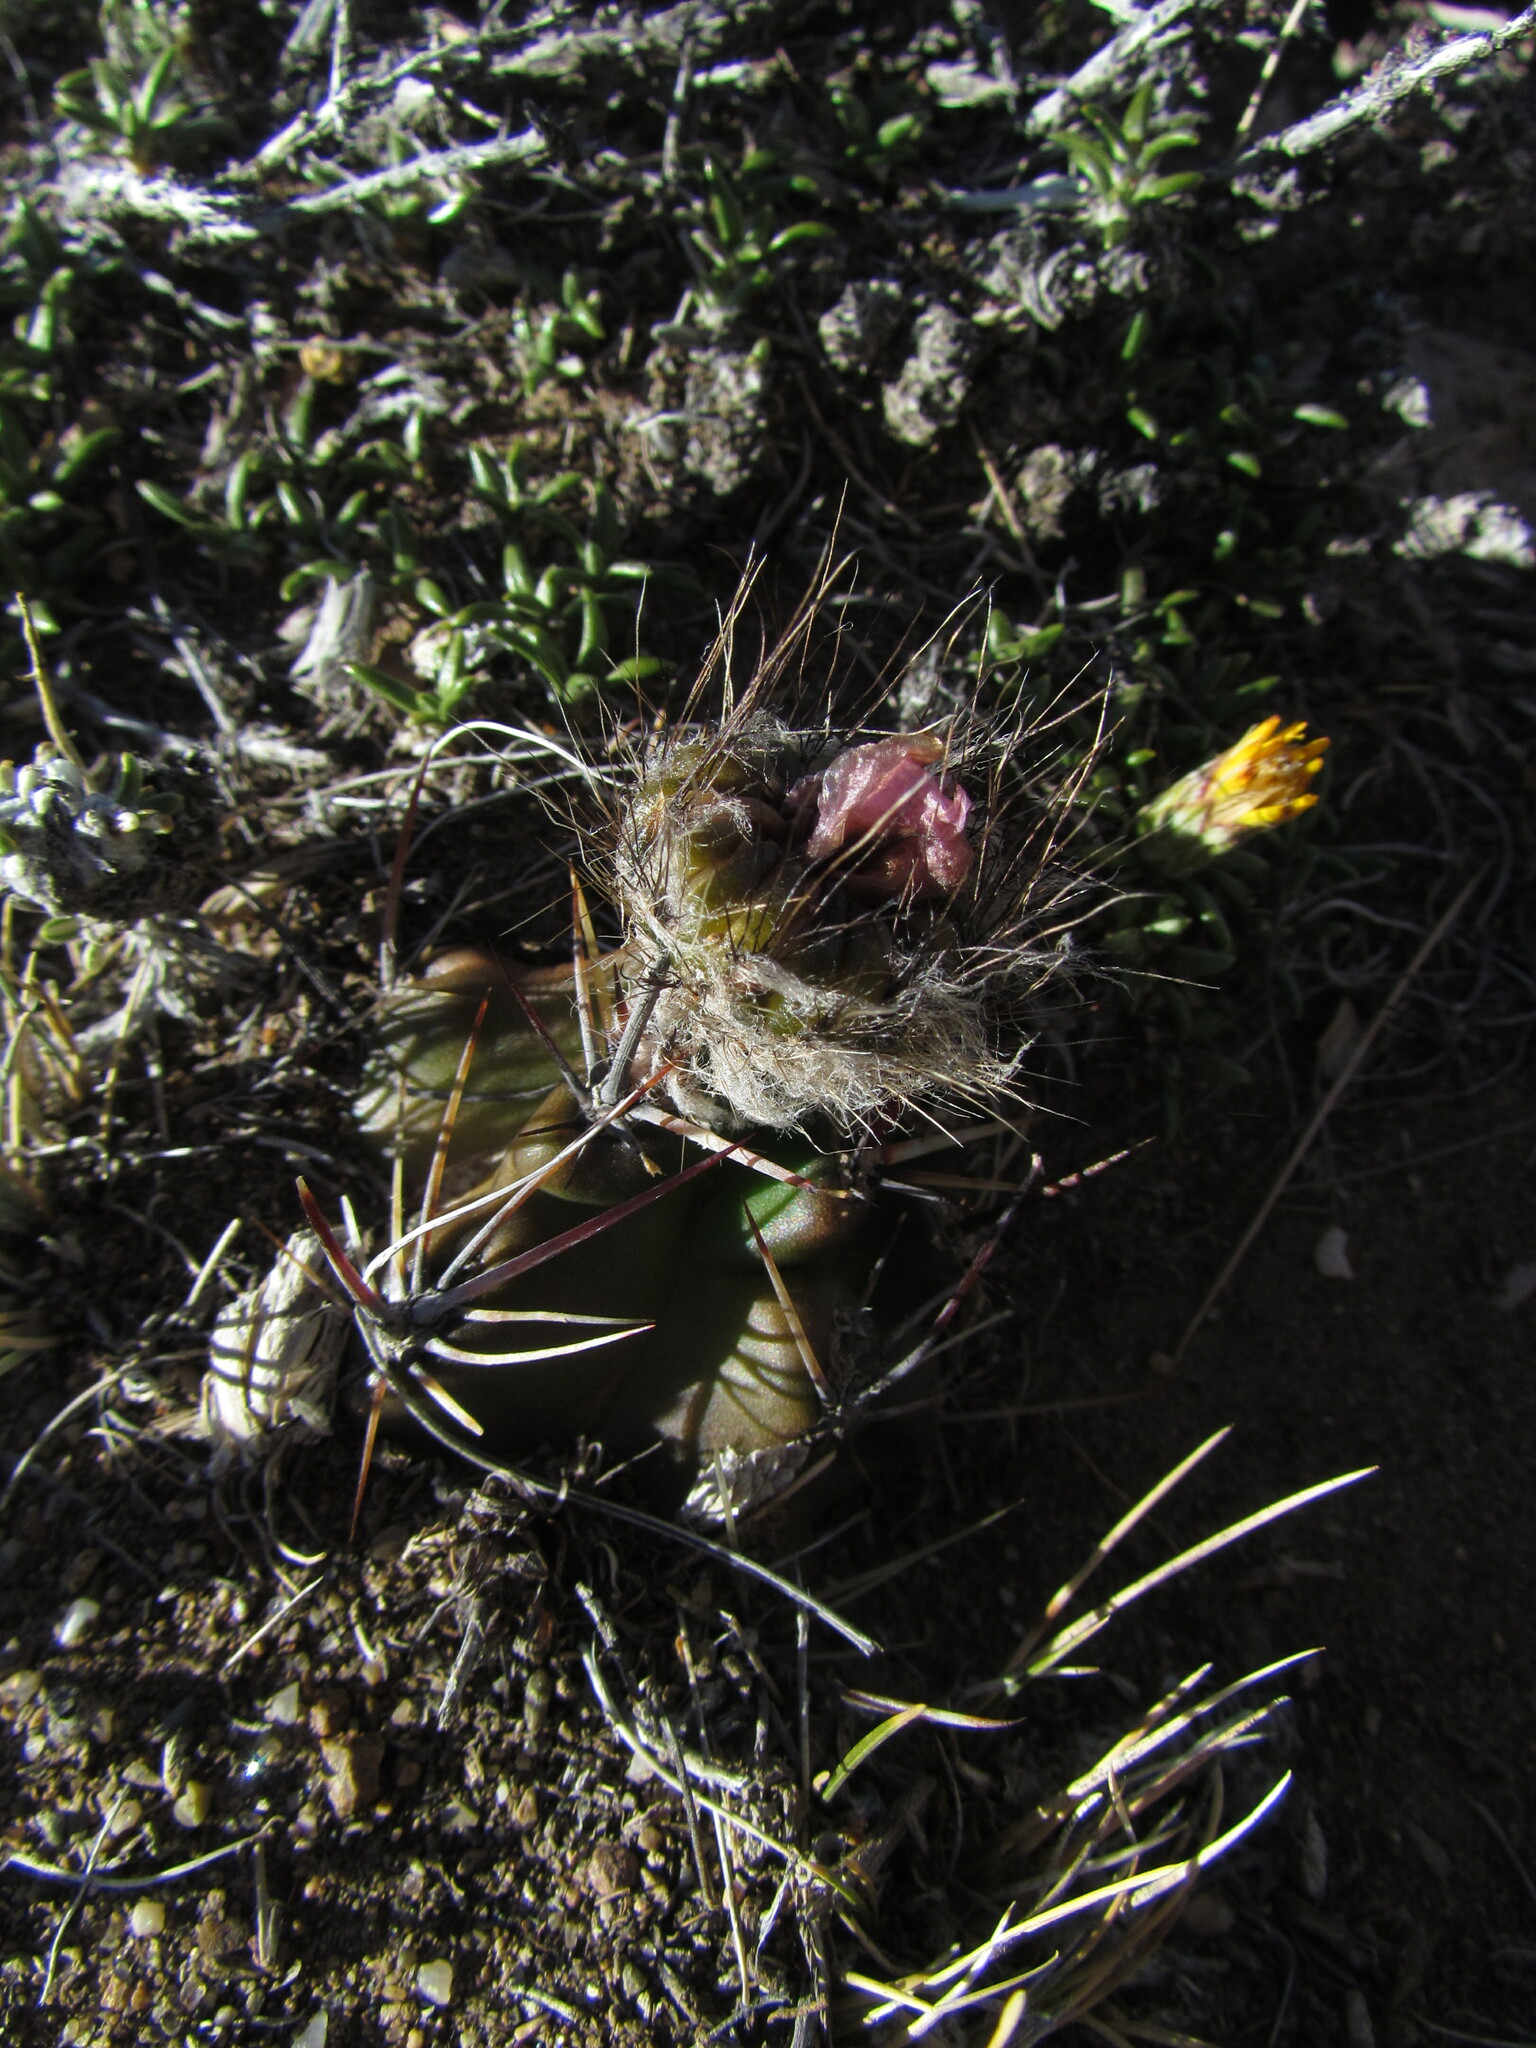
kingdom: Plantae
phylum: Tracheophyta
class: Magnoliopsida
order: Caryophyllales
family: Cactaceae
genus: Austrocactus
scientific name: Austrocactus aonikenkensis
